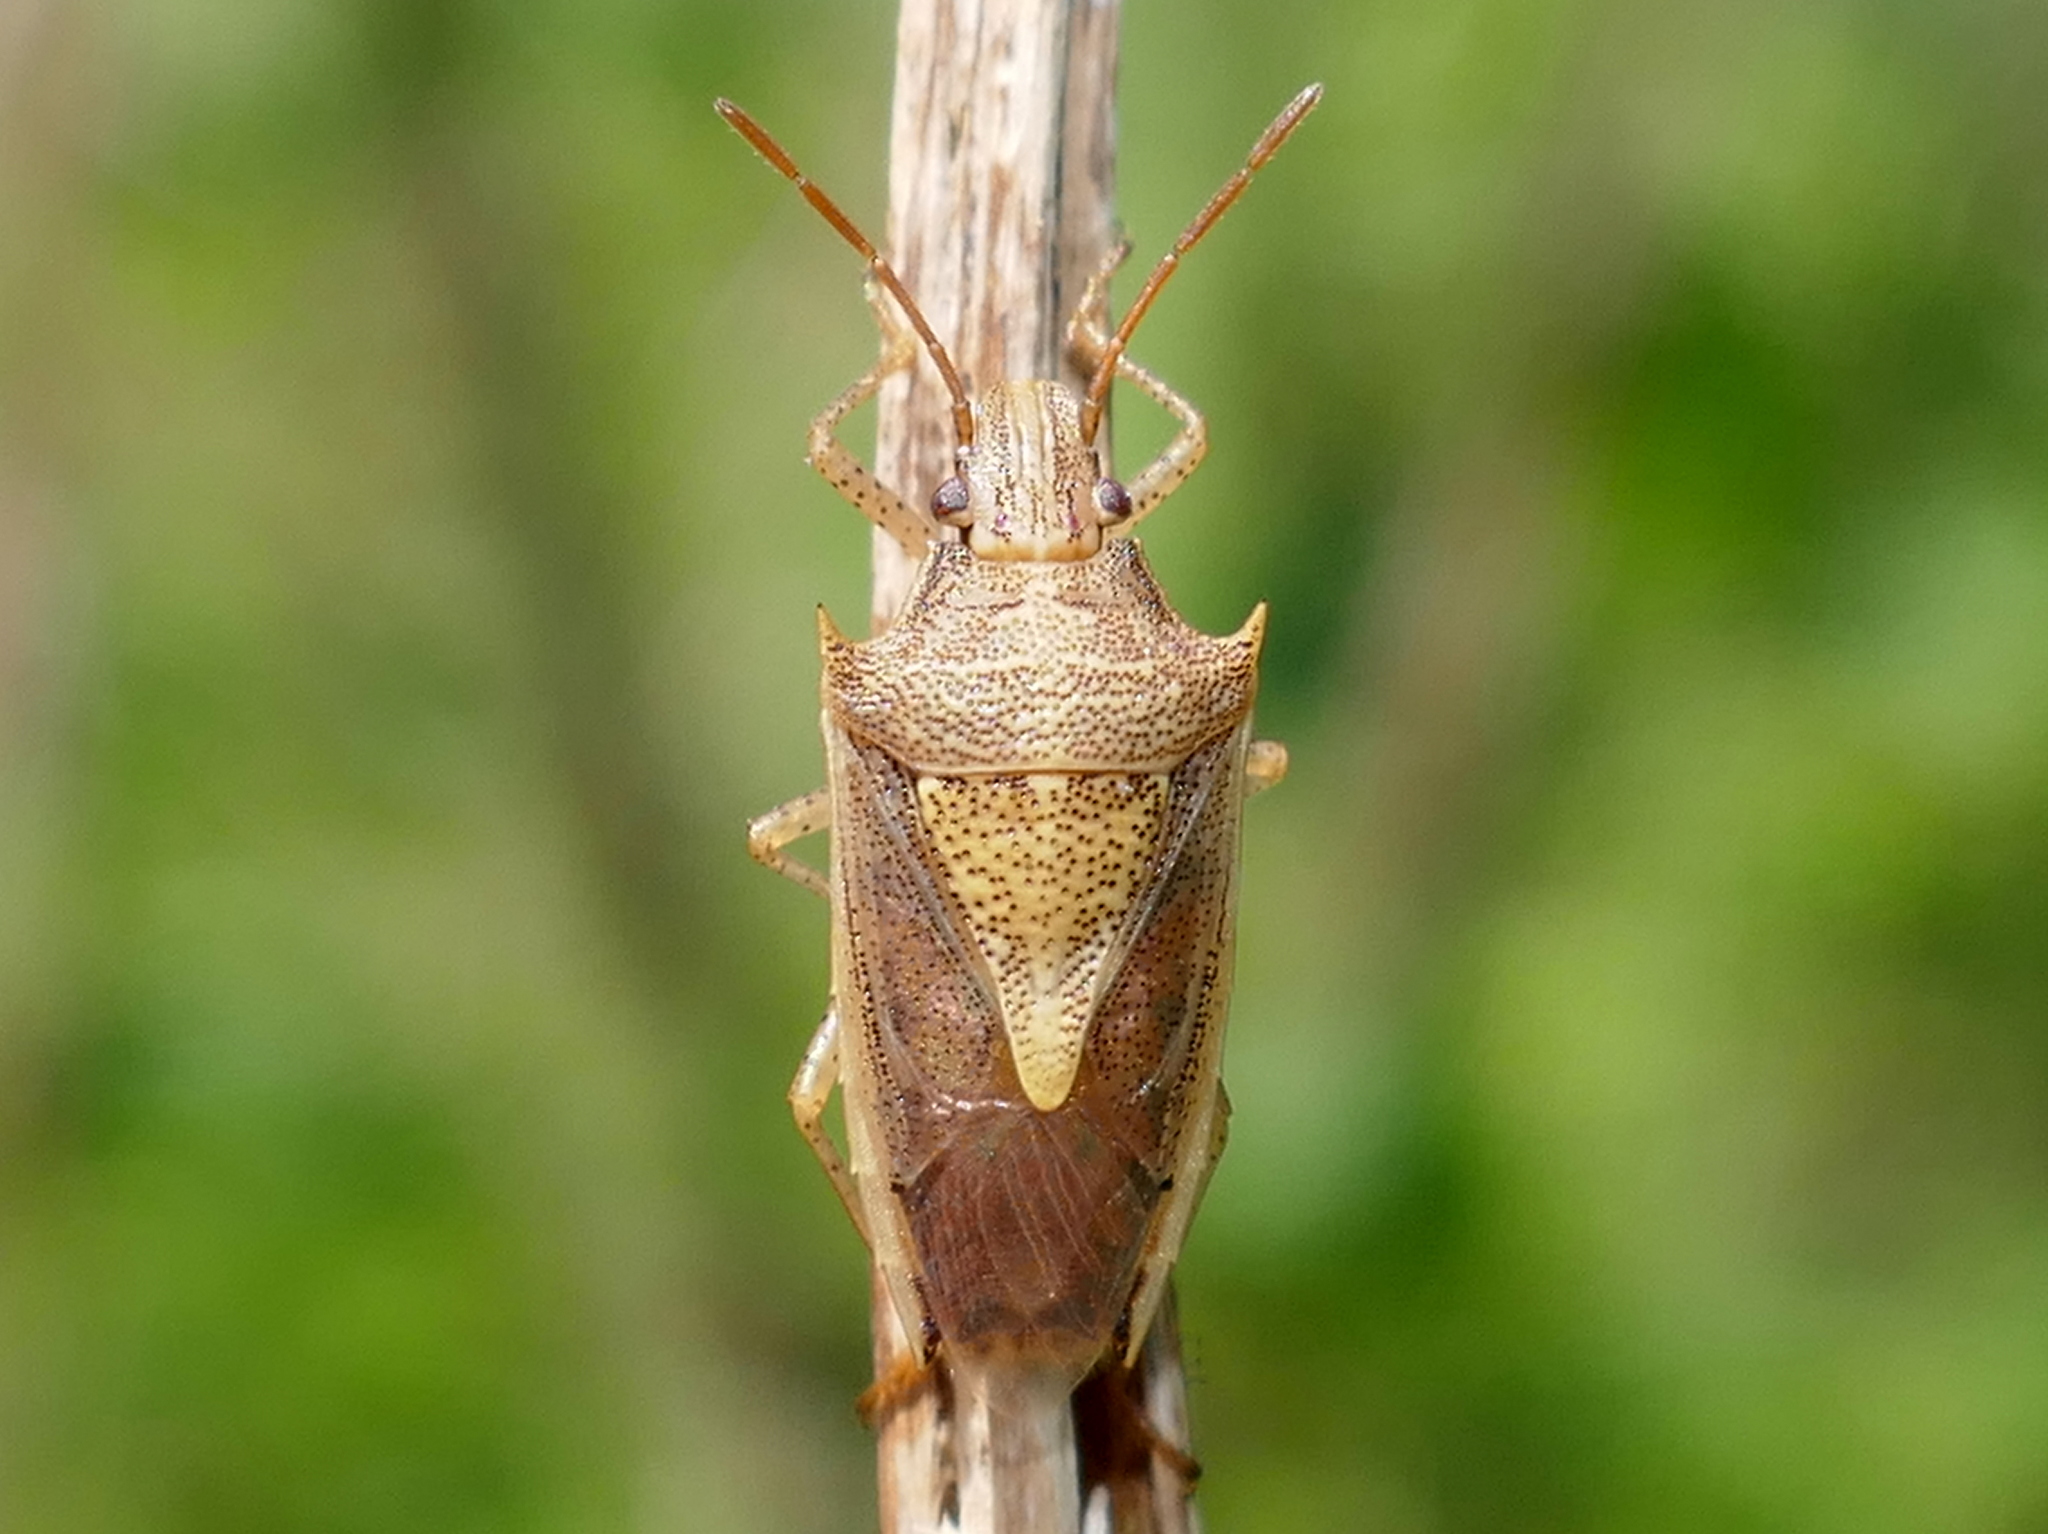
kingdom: Animalia
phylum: Arthropoda
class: Insecta
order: Hemiptera
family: Pentatomidae
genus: Oebalus
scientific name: Oebalus pugnax
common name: Rice stink bug
